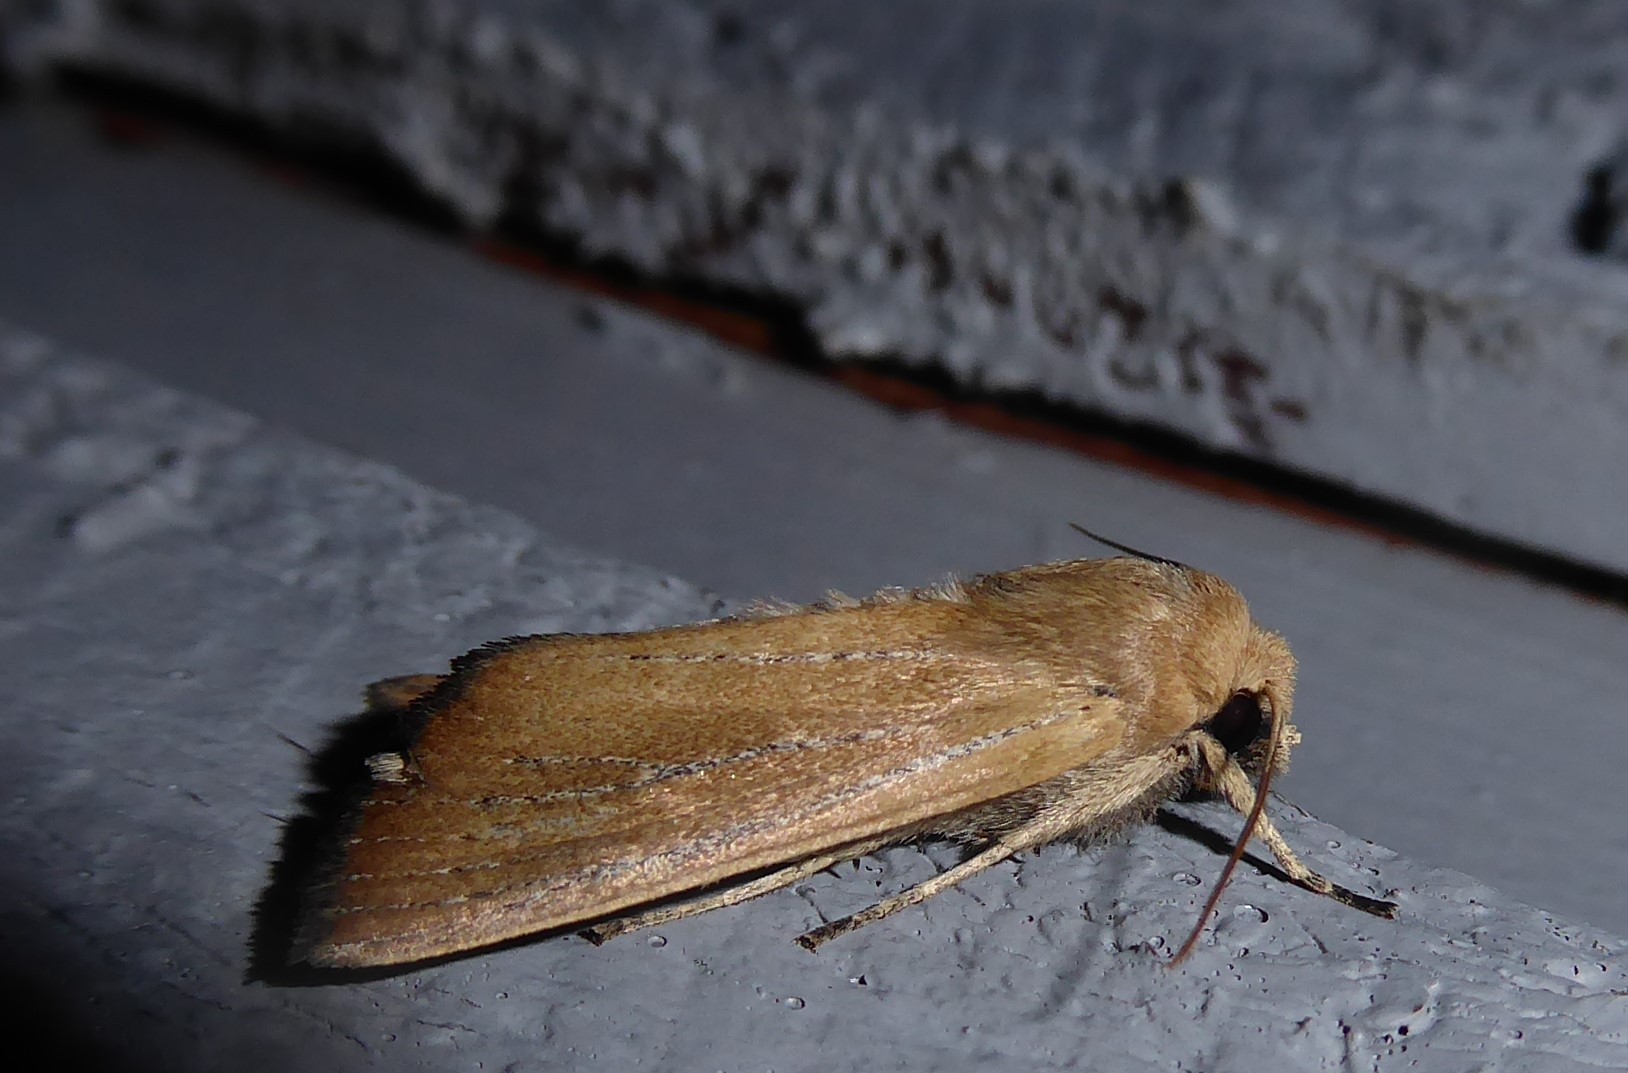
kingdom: Animalia
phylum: Arthropoda
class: Insecta
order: Lepidoptera
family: Noctuidae
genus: Ichneutica
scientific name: Ichneutica blenheimensis
